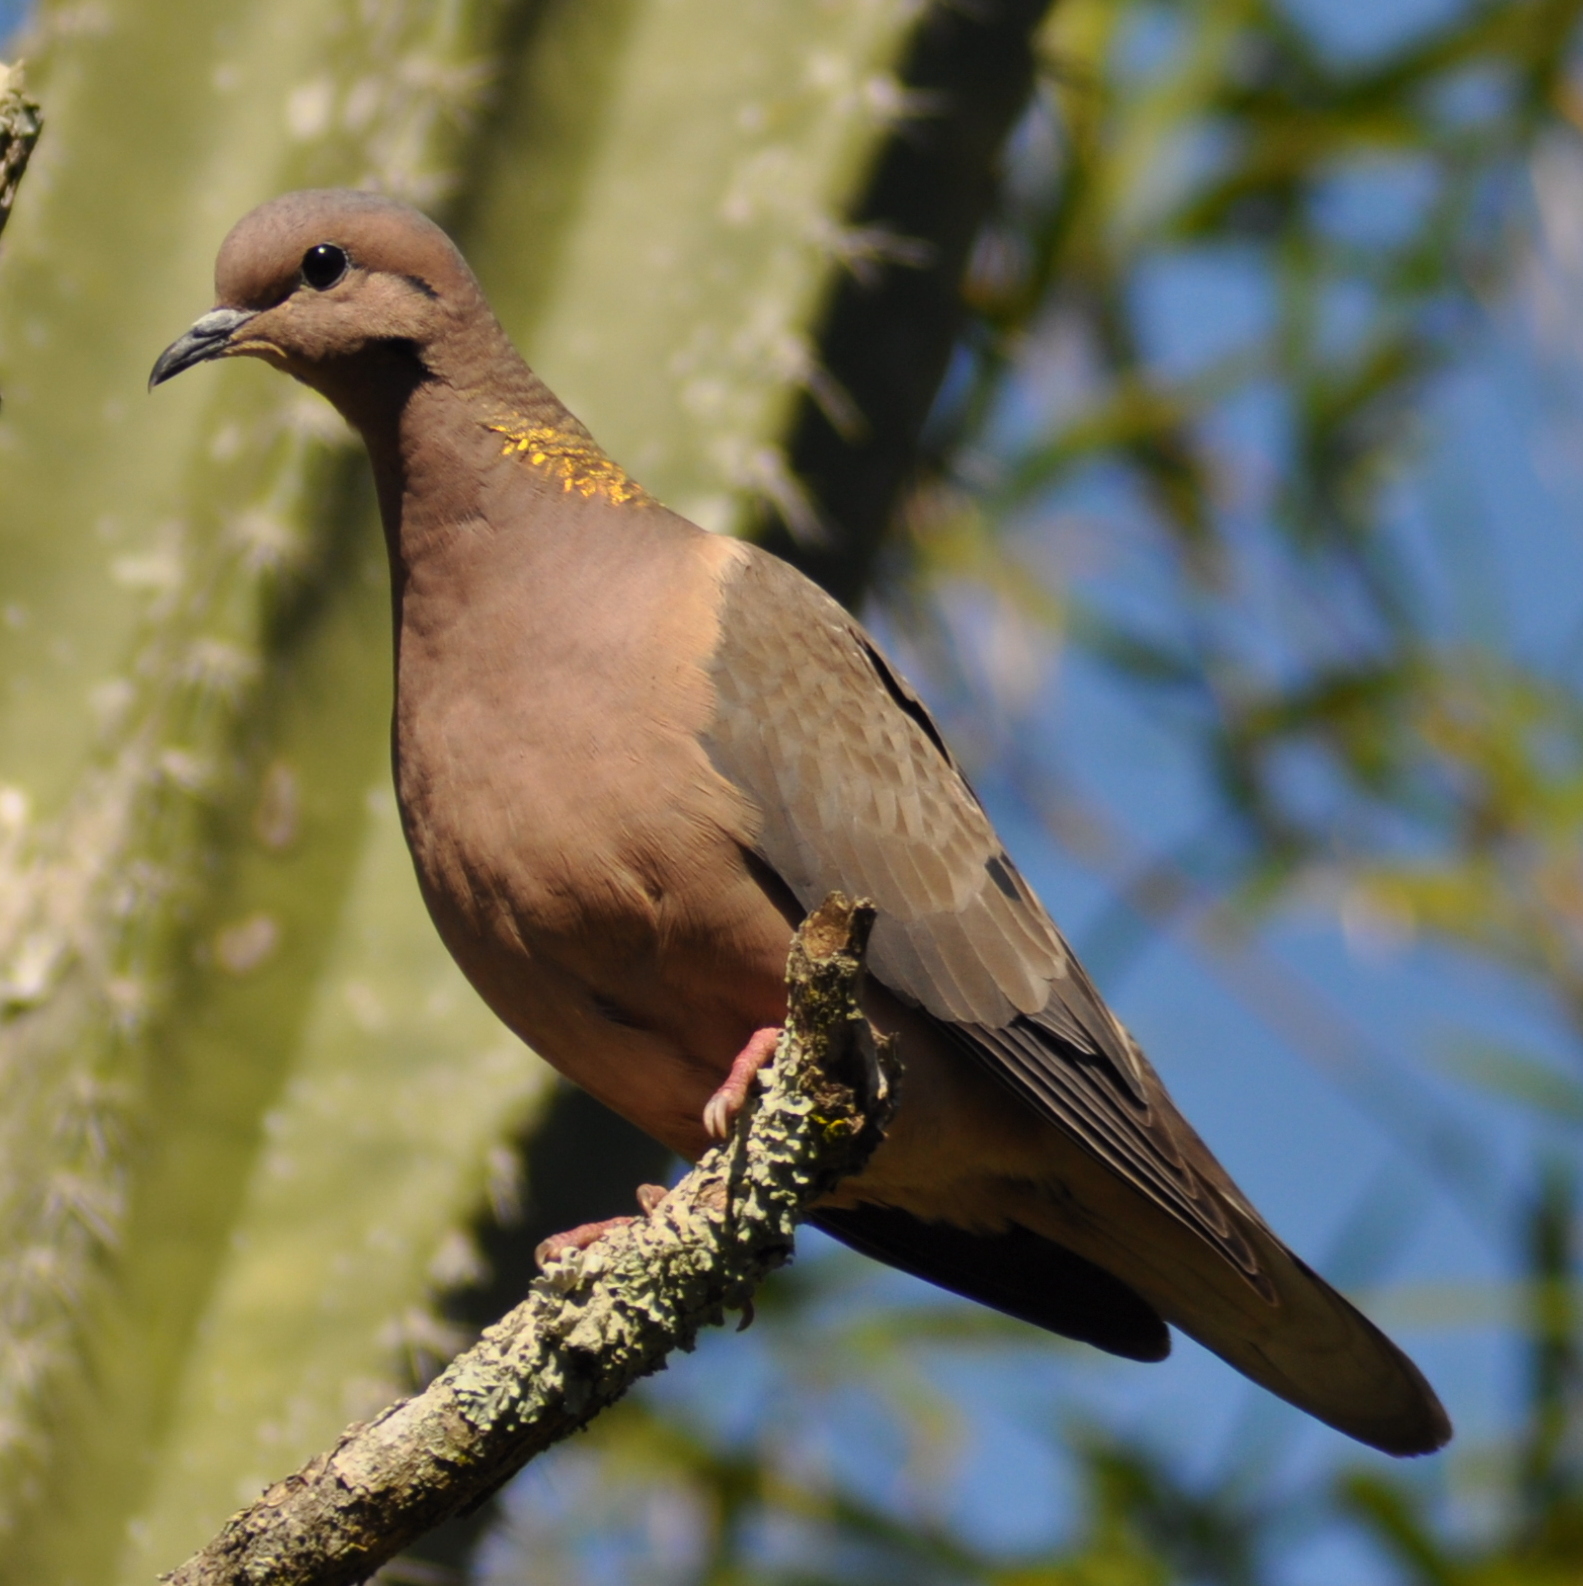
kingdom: Animalia
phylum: Chordata
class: Aves
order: Columbiformes
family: Columbidae
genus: Zenaida
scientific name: Zenaida auriculata
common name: Eared dove
